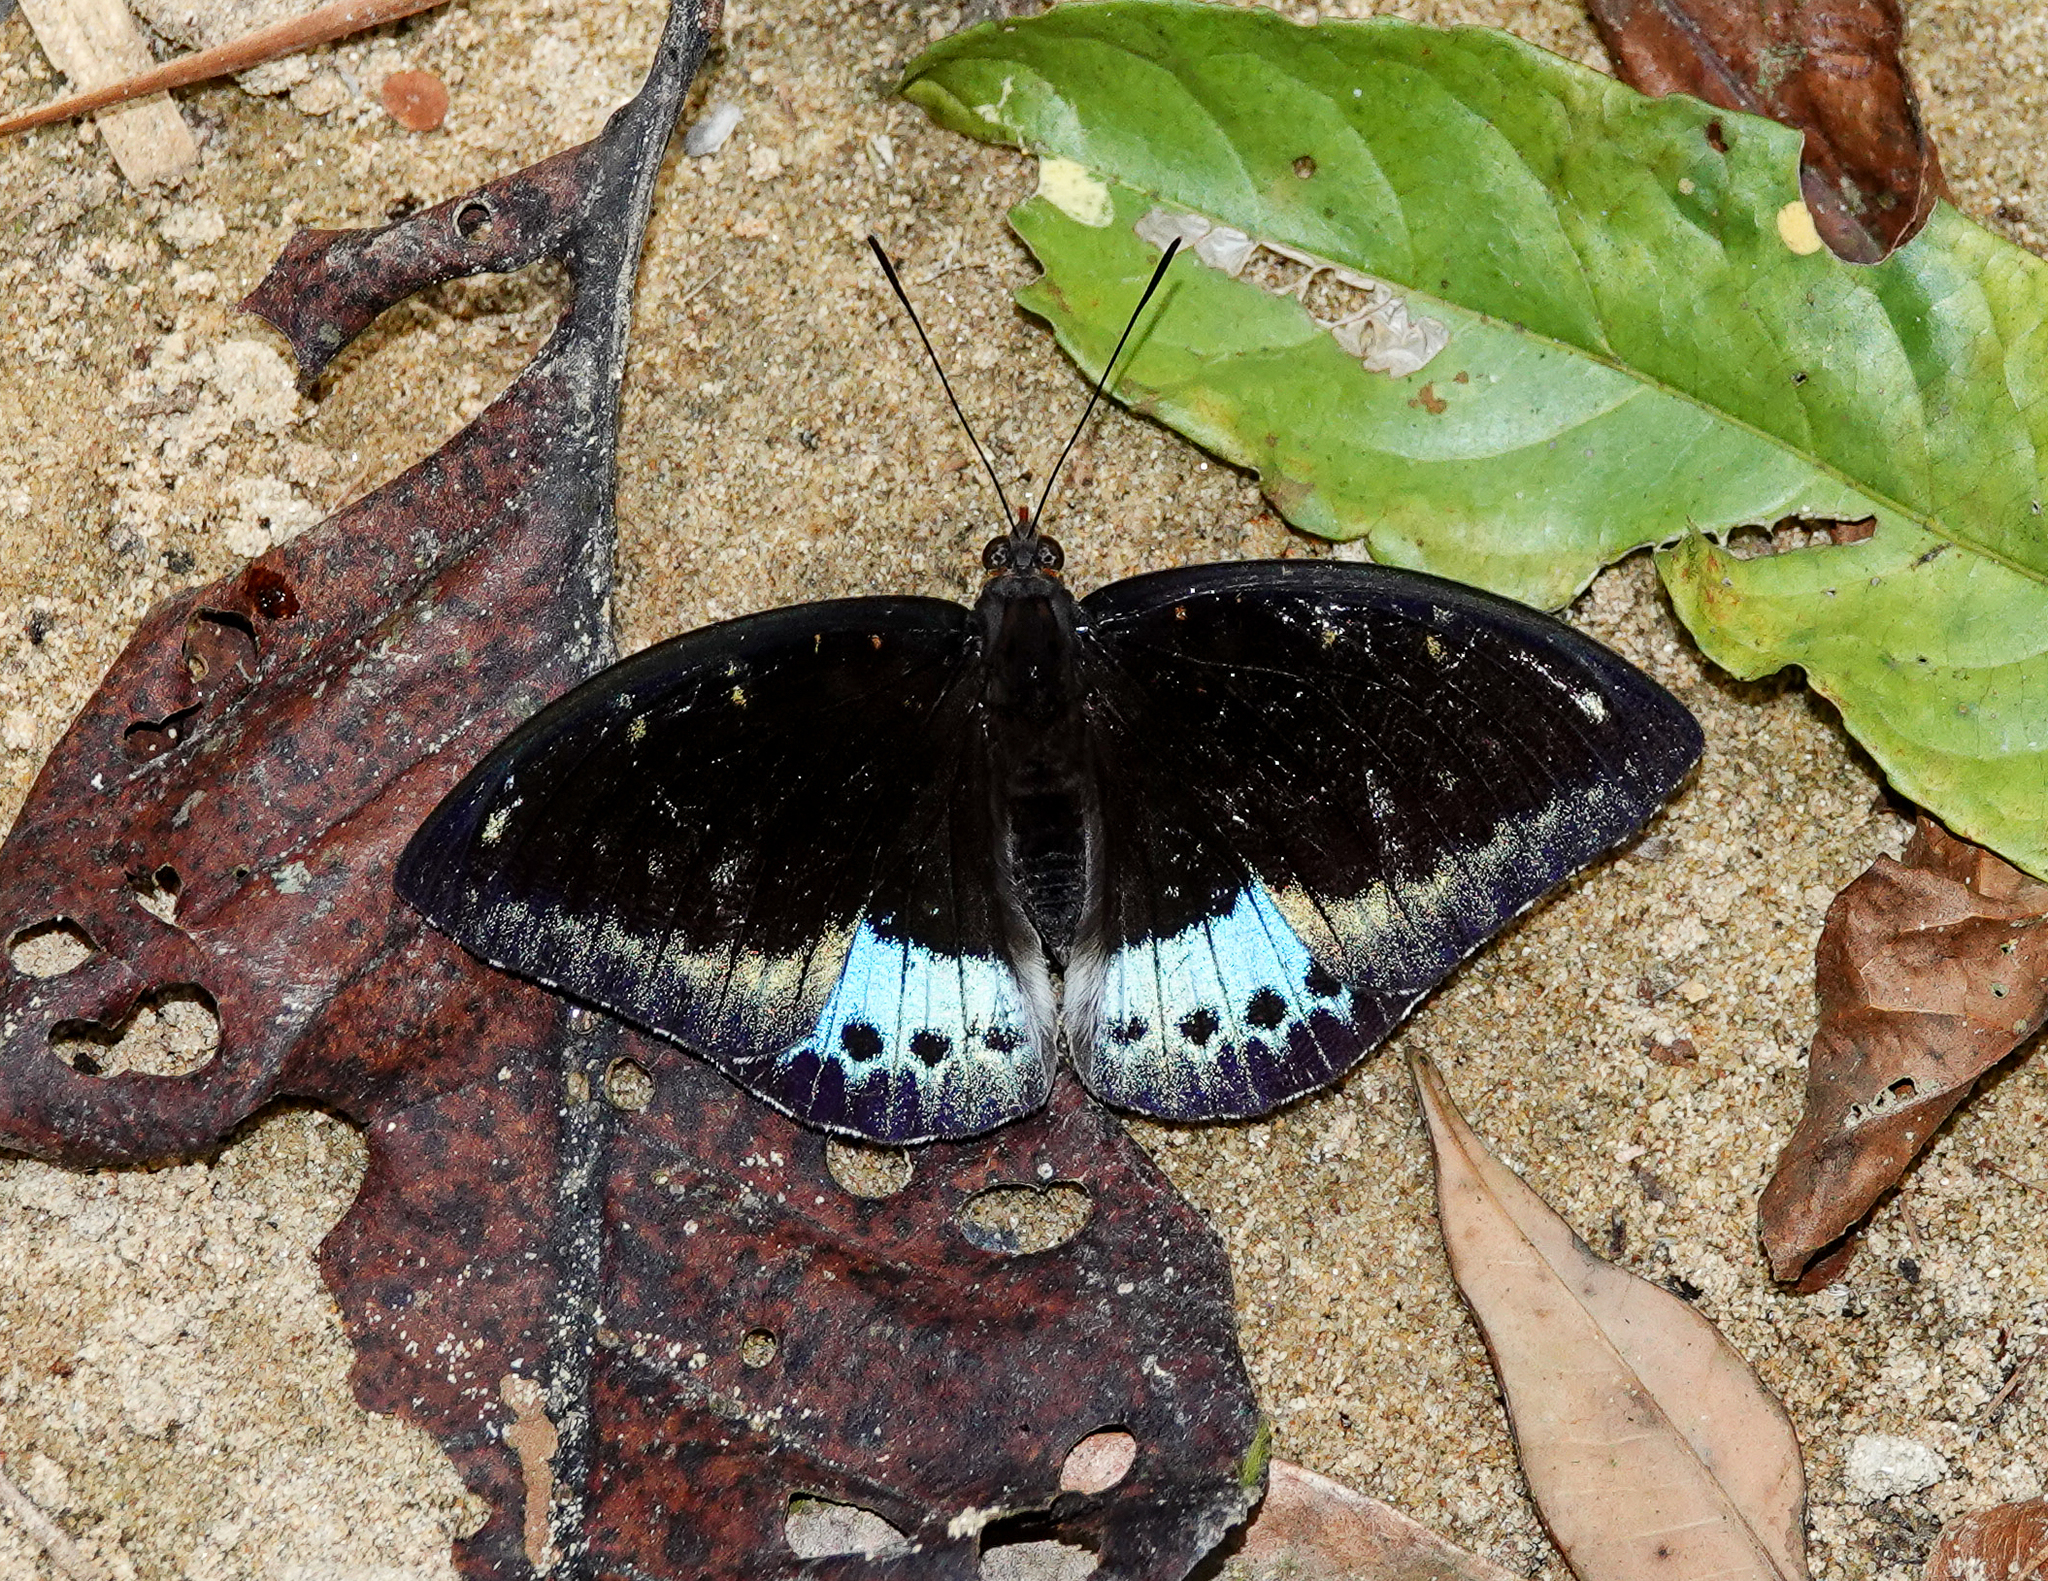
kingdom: Animalia
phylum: Arthropoda
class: Insecta
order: Lepidoptera
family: Nymphalidae
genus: Lexias
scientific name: Lexias pardalis
